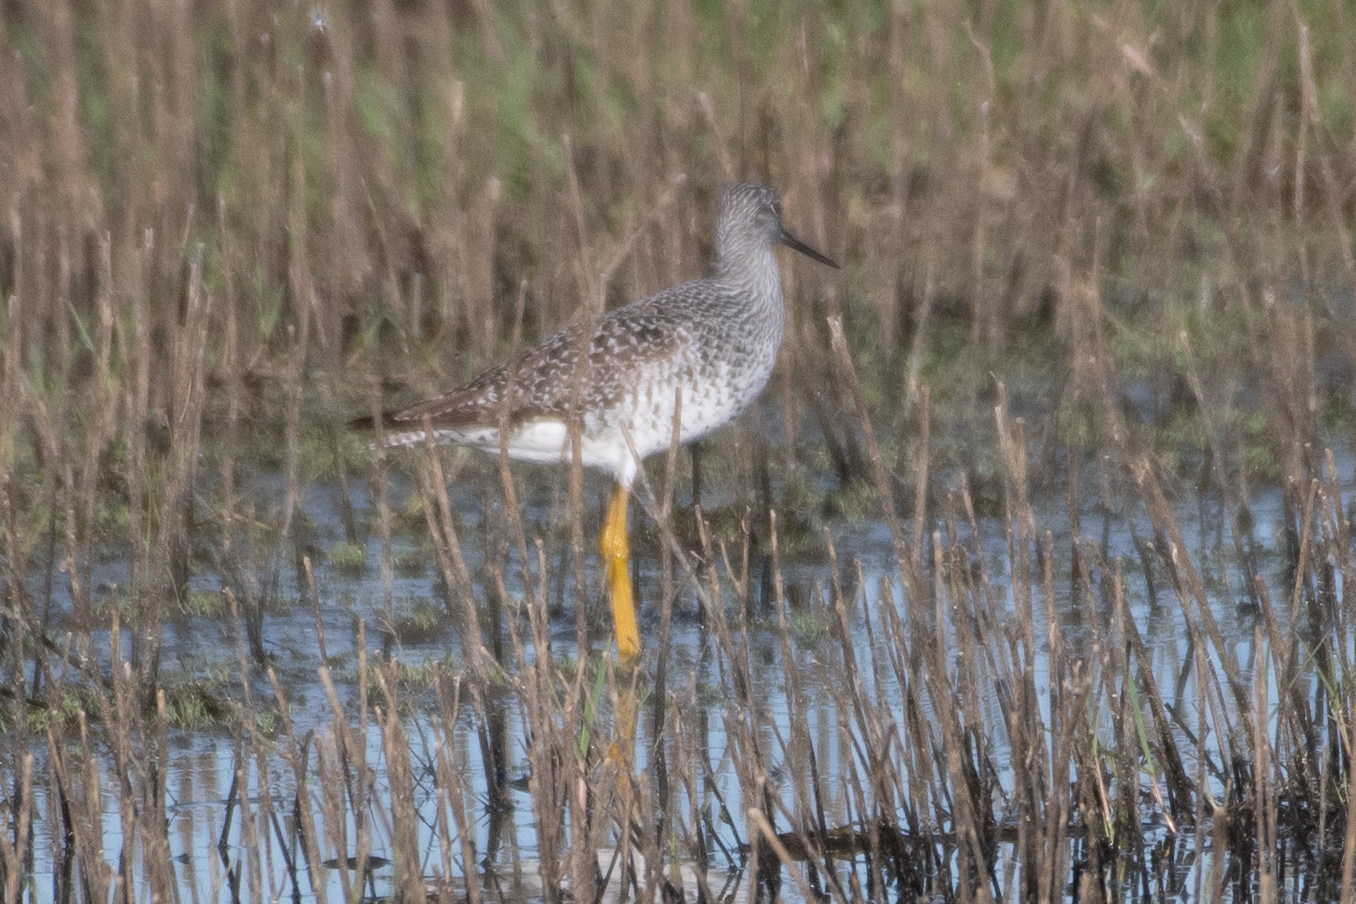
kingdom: Animalia
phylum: Chordata
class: Aves
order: Charadriiformes
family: Scolopacidae
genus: Tringa
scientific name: Tringa melanoleuca
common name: Greater yellowlegs
